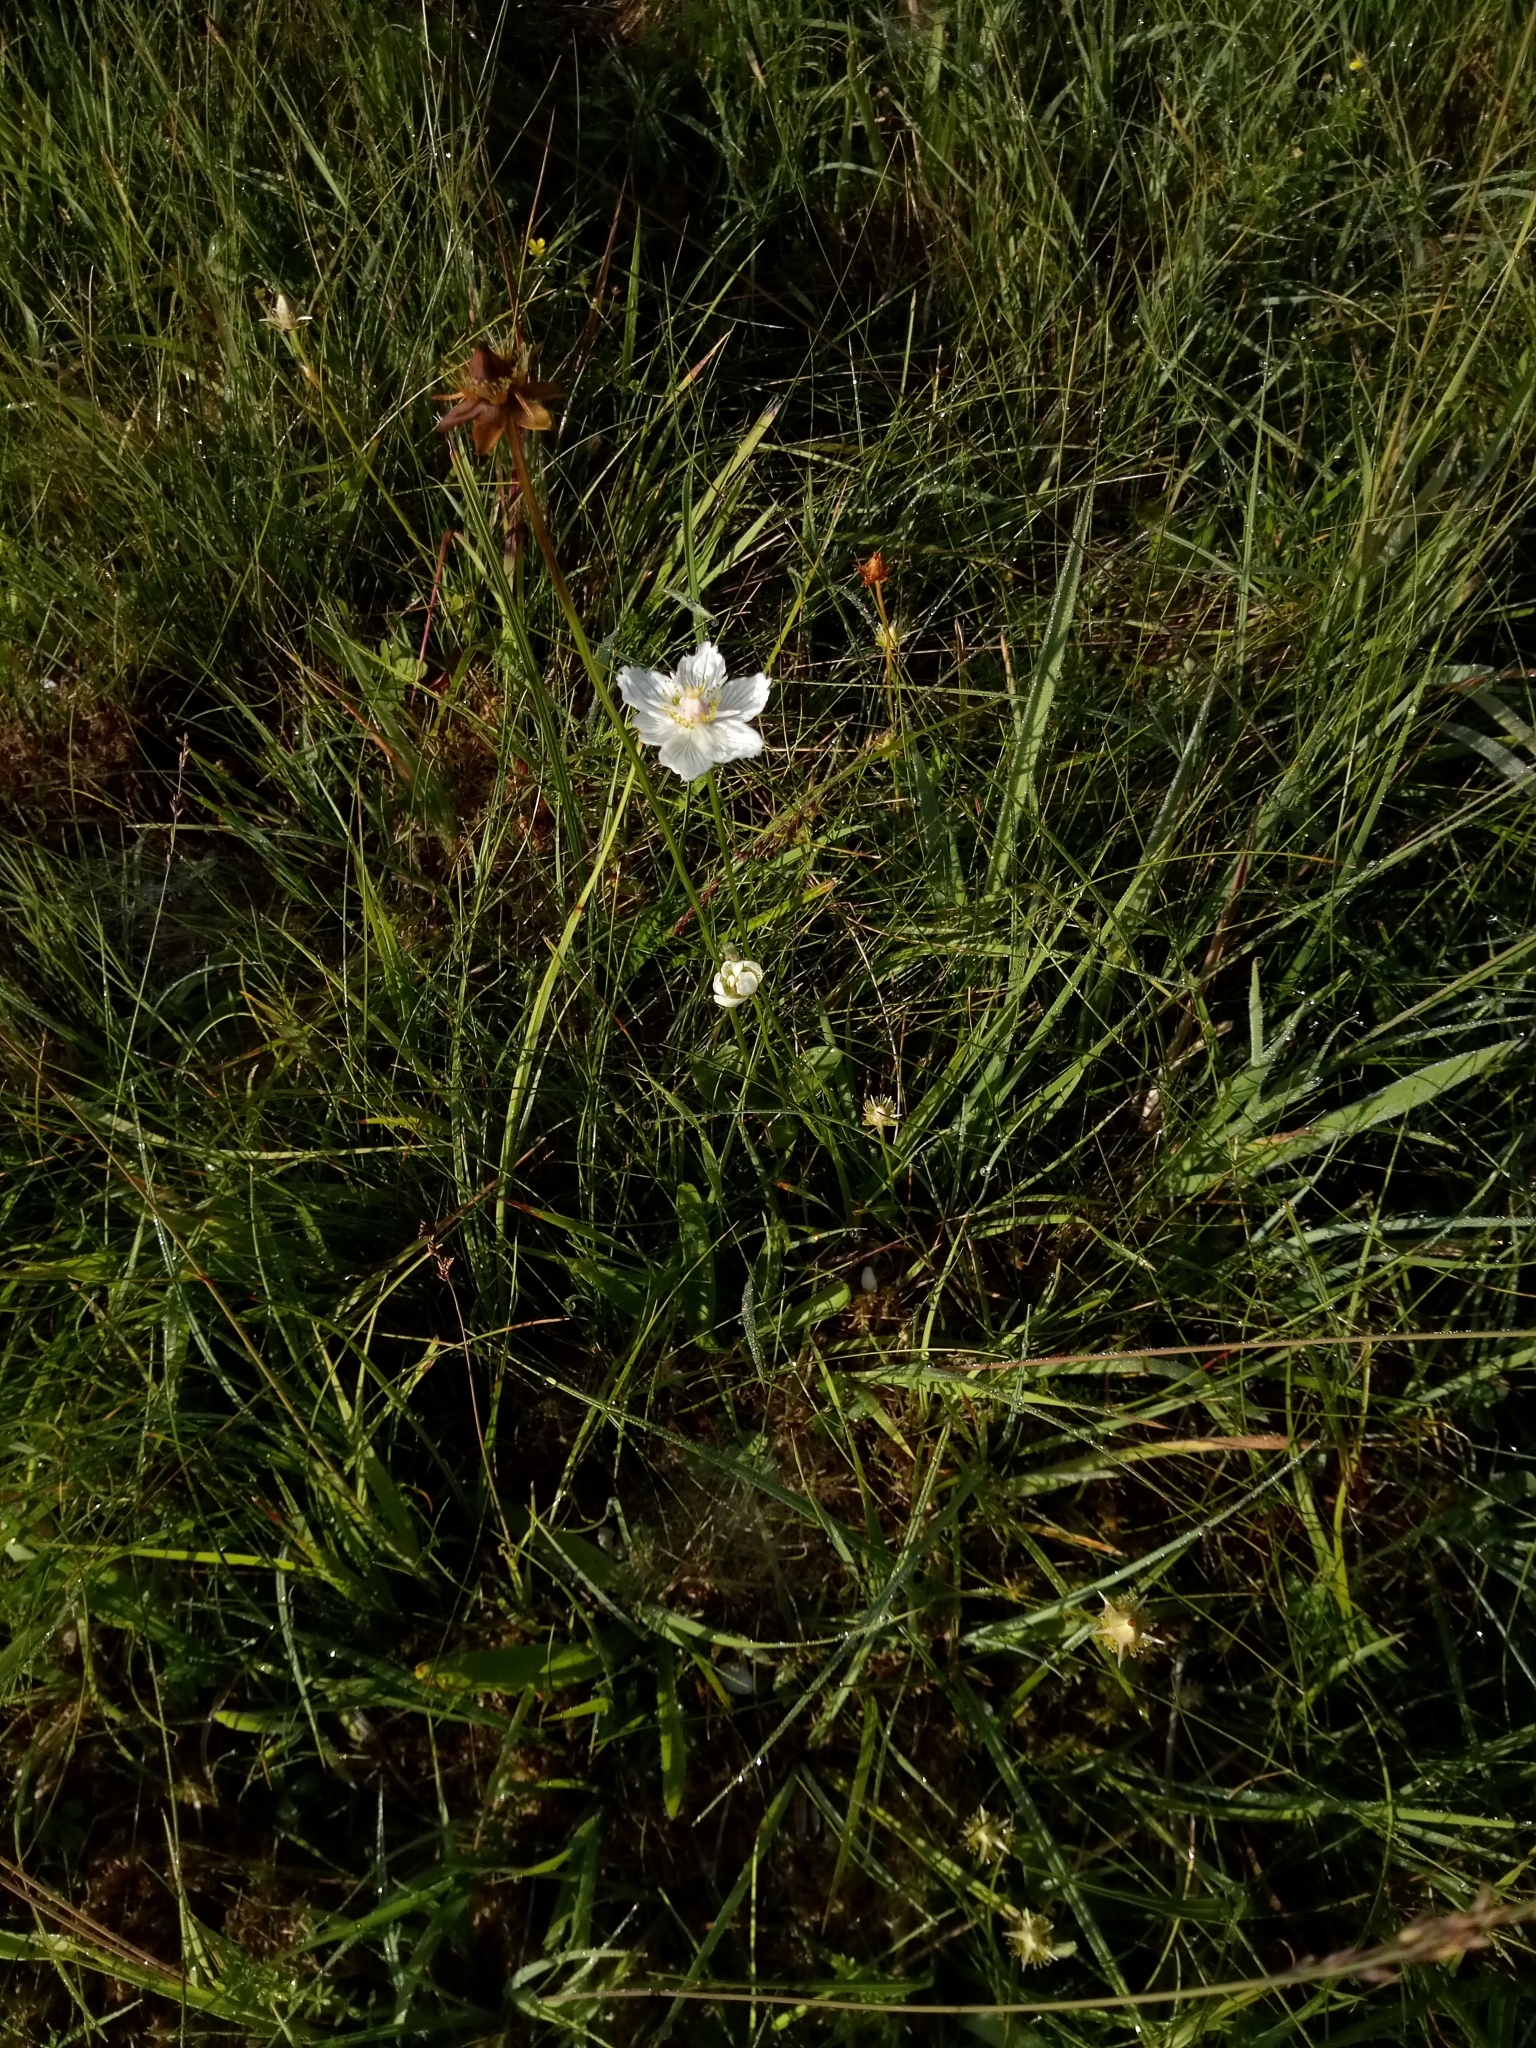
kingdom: Plantae
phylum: Tracheophyta
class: Magnoliopsida
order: Celastrales
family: Parnassiaceae
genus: Parnassia
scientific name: Parnassia palustris
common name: Grass-of-parnassus
